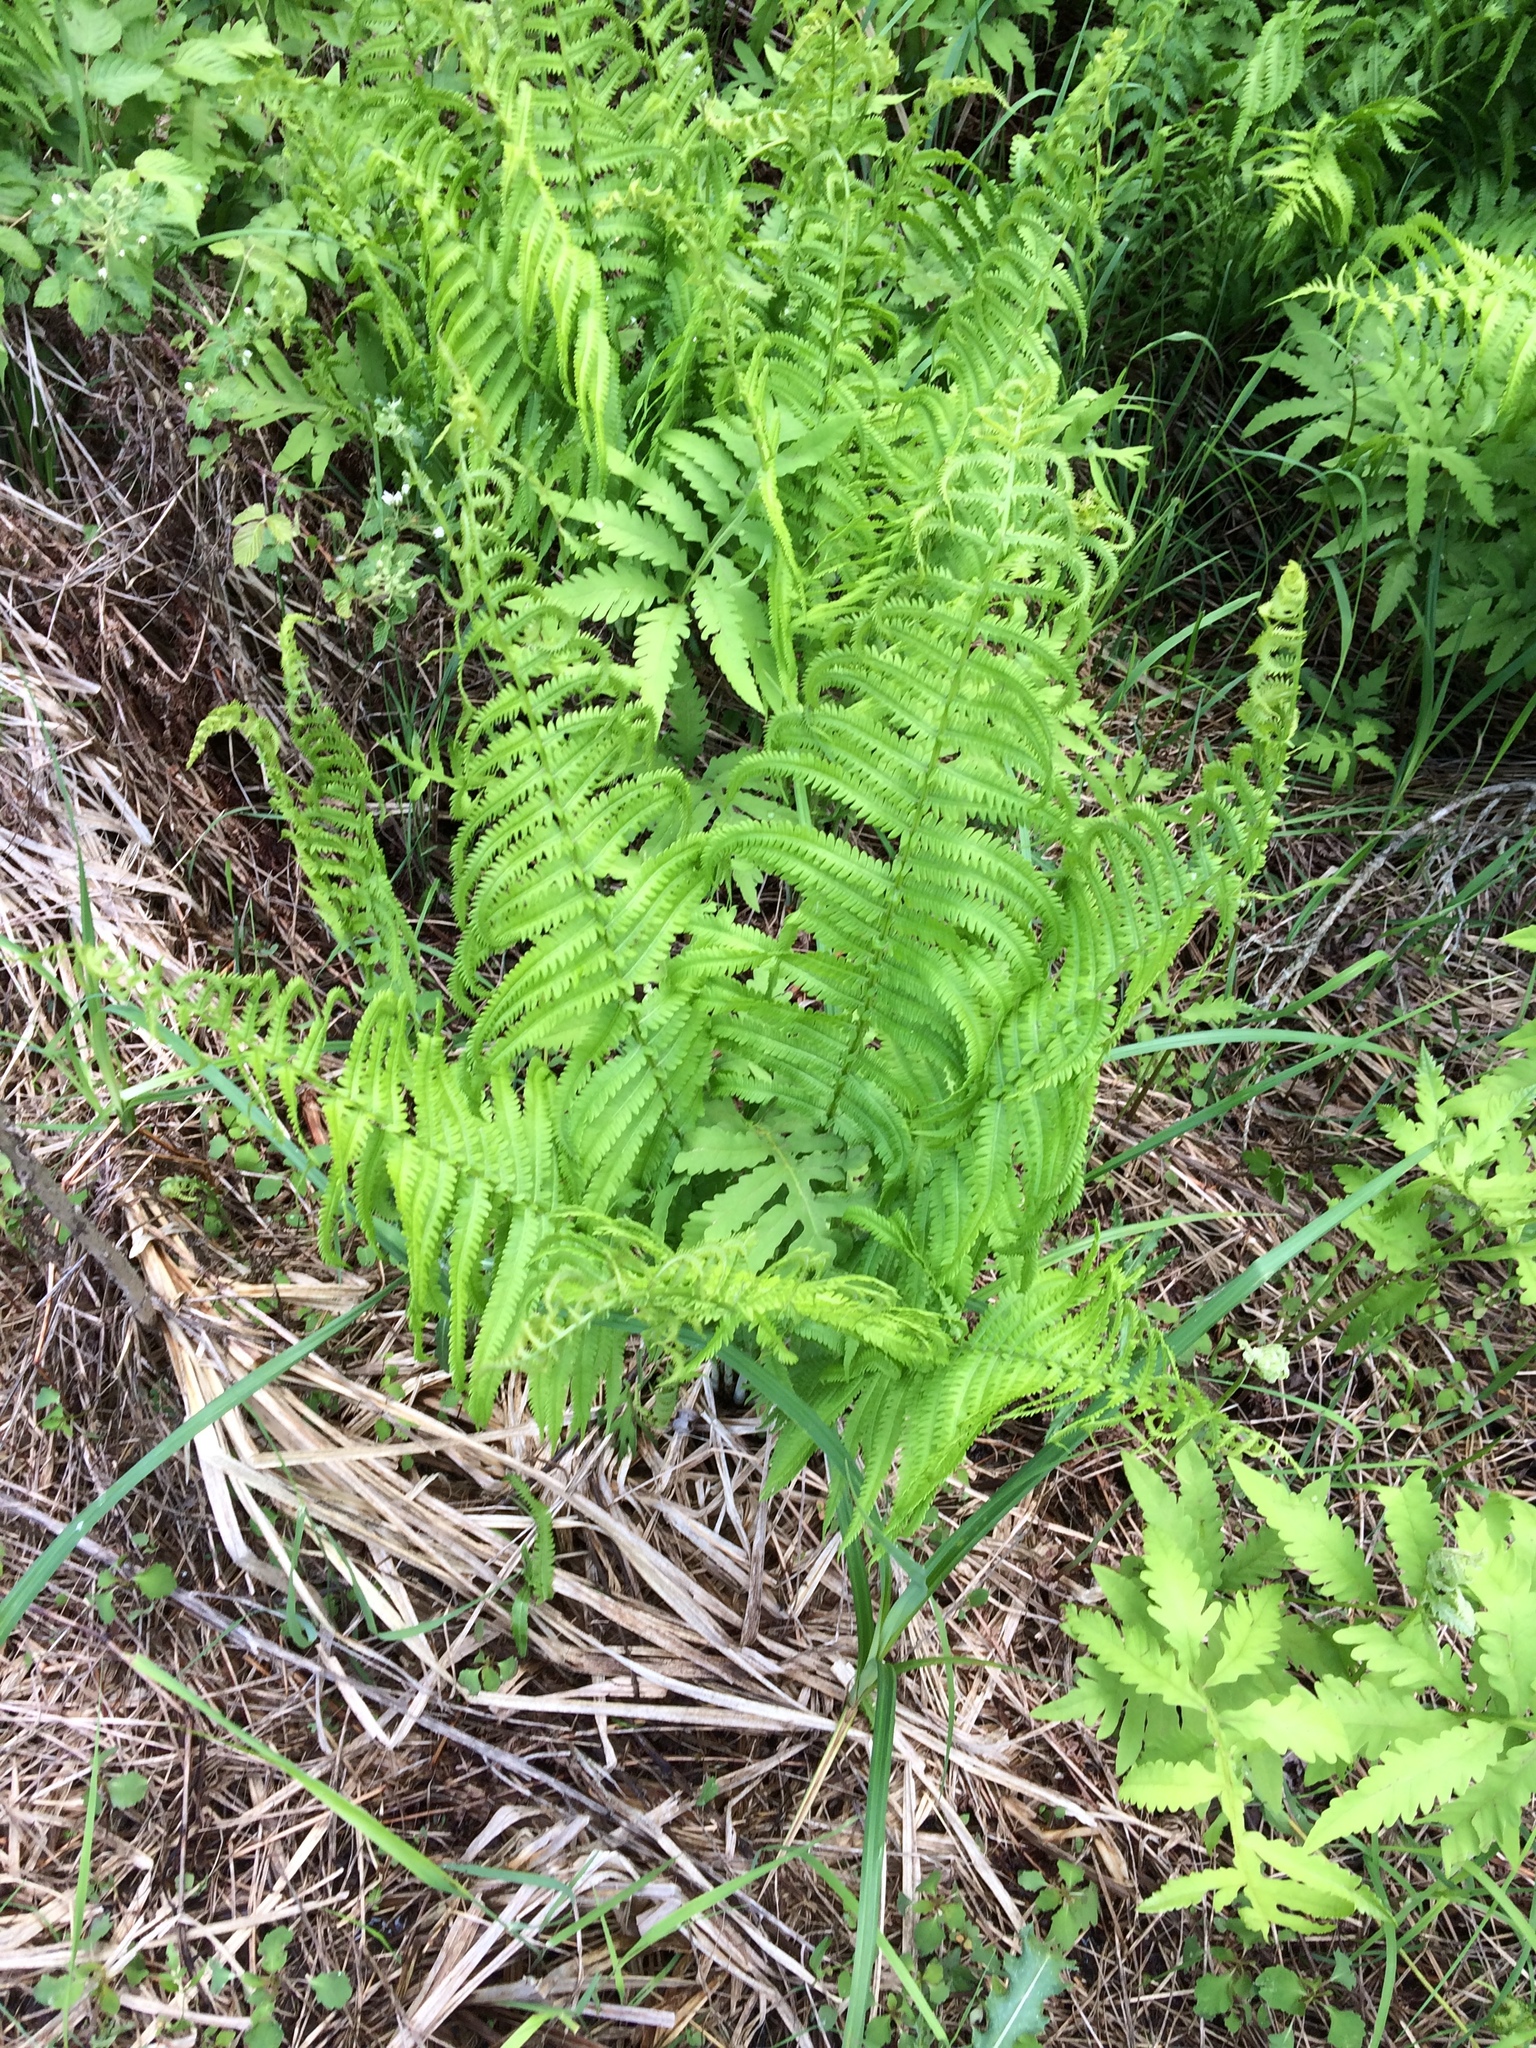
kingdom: Plantae
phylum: Tracheophyta
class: Polypodiopsida
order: Polypodiales
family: Onocleaceae
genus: Matteuccia
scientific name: Matteuccia struthiopteris
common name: Ostrich fern
